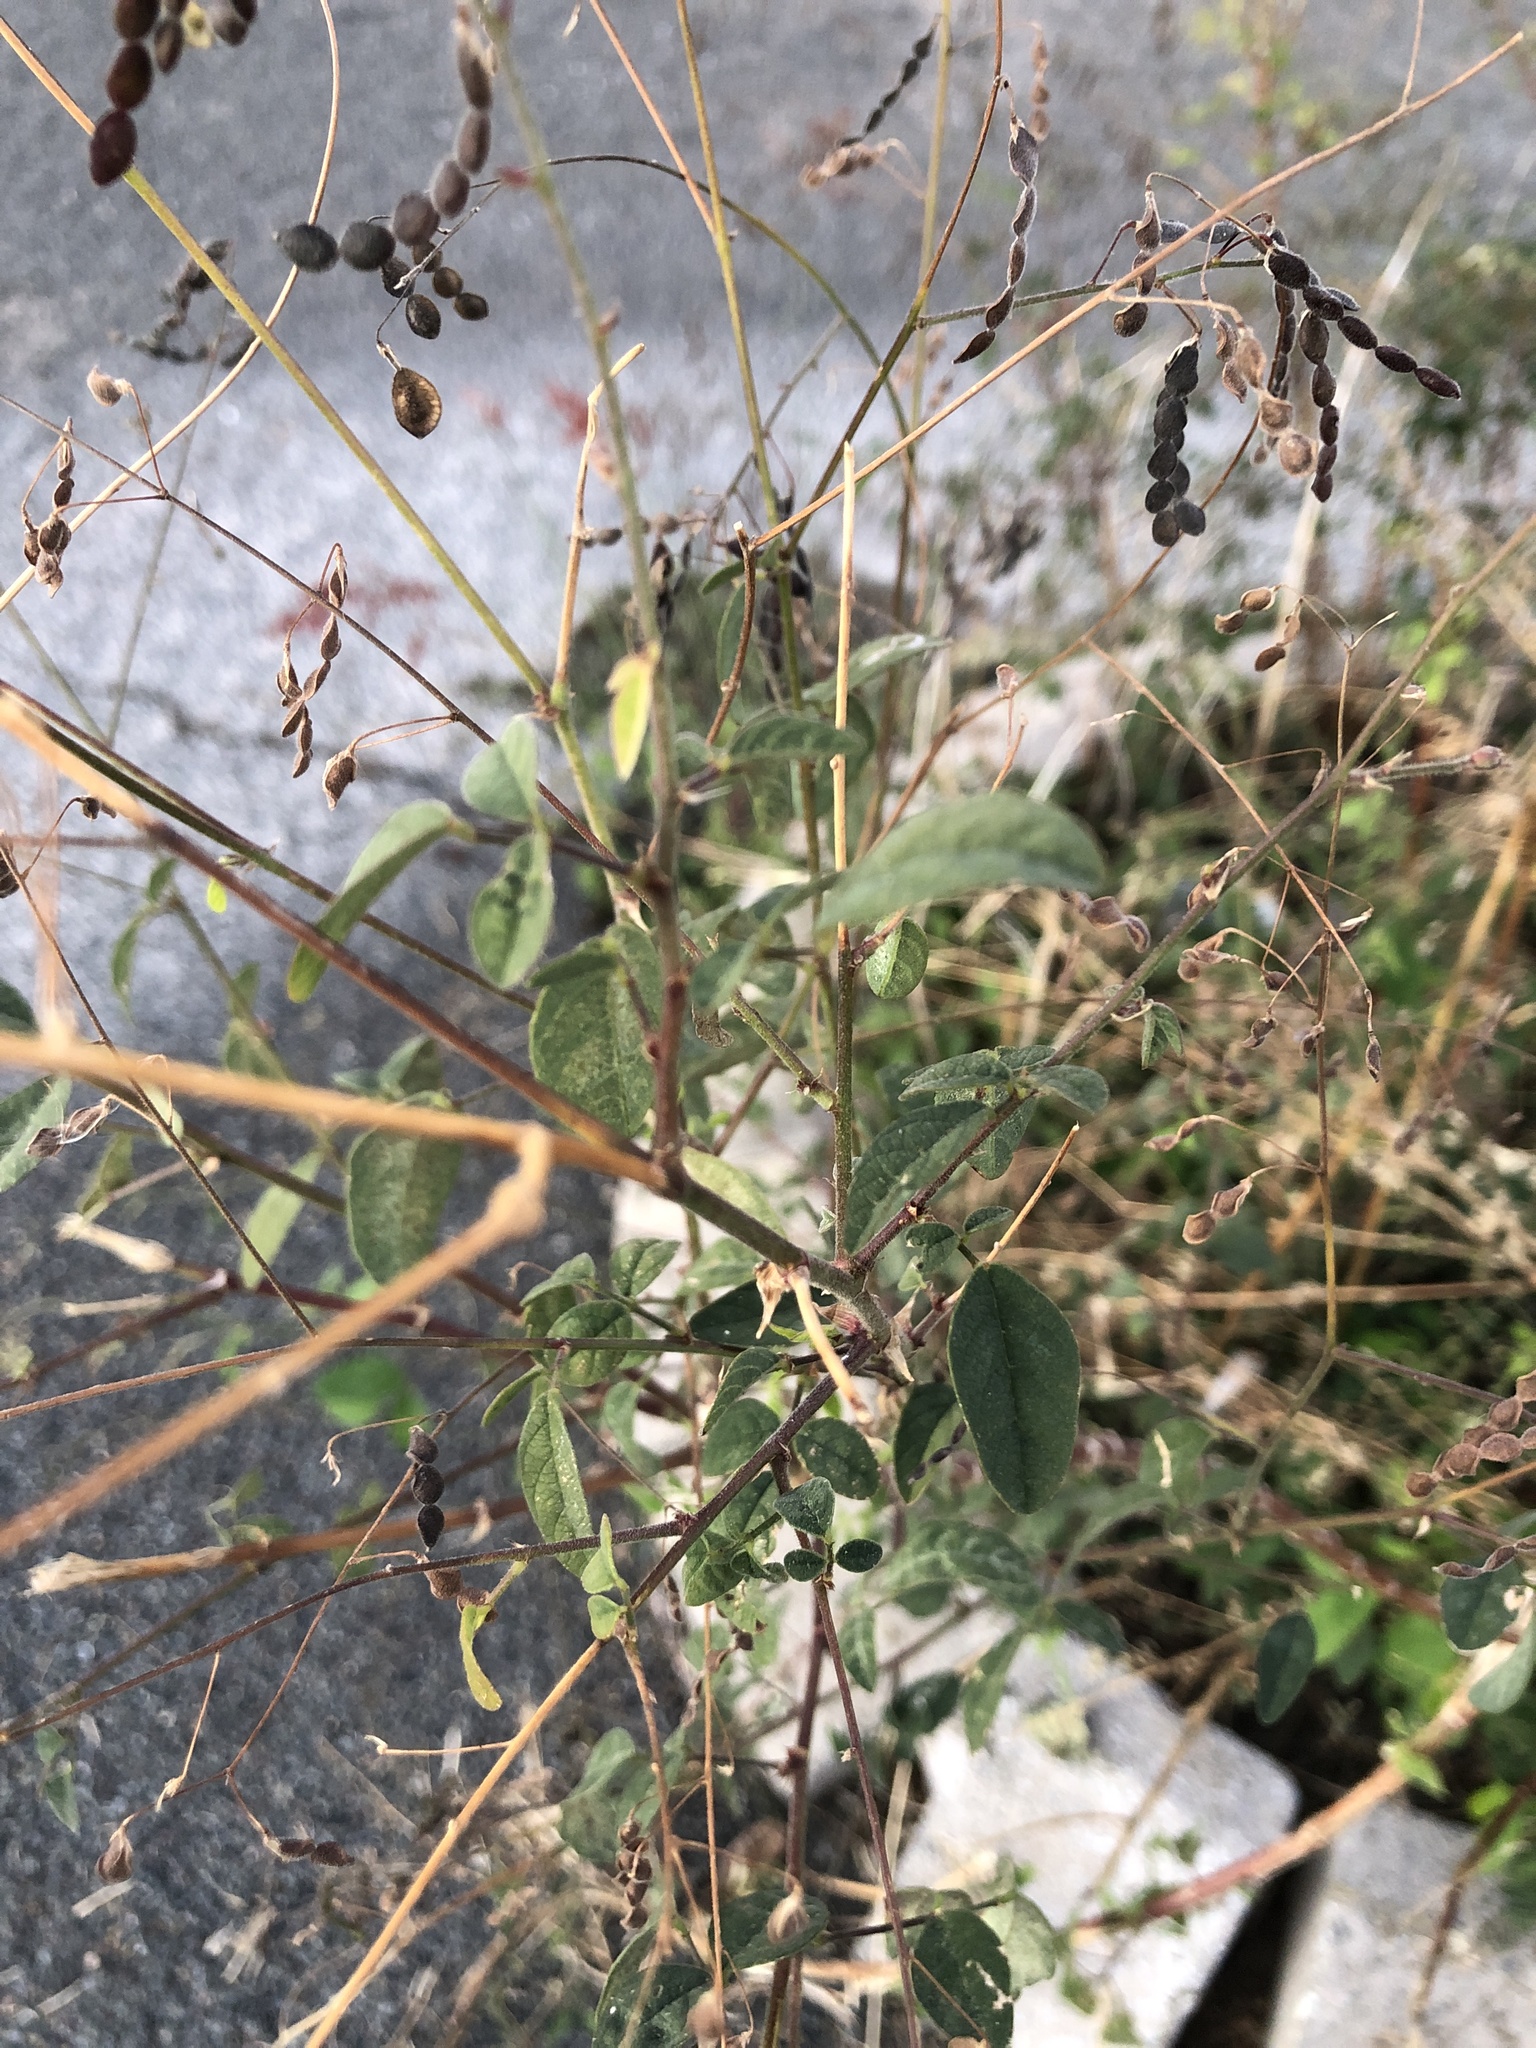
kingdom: Plantae
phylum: Tracheophyta
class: Magnoliopsida
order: Fabales
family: Fabaceae
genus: Desmodium
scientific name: Desmodium tortuosum
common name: Dixie ticktrefoil
